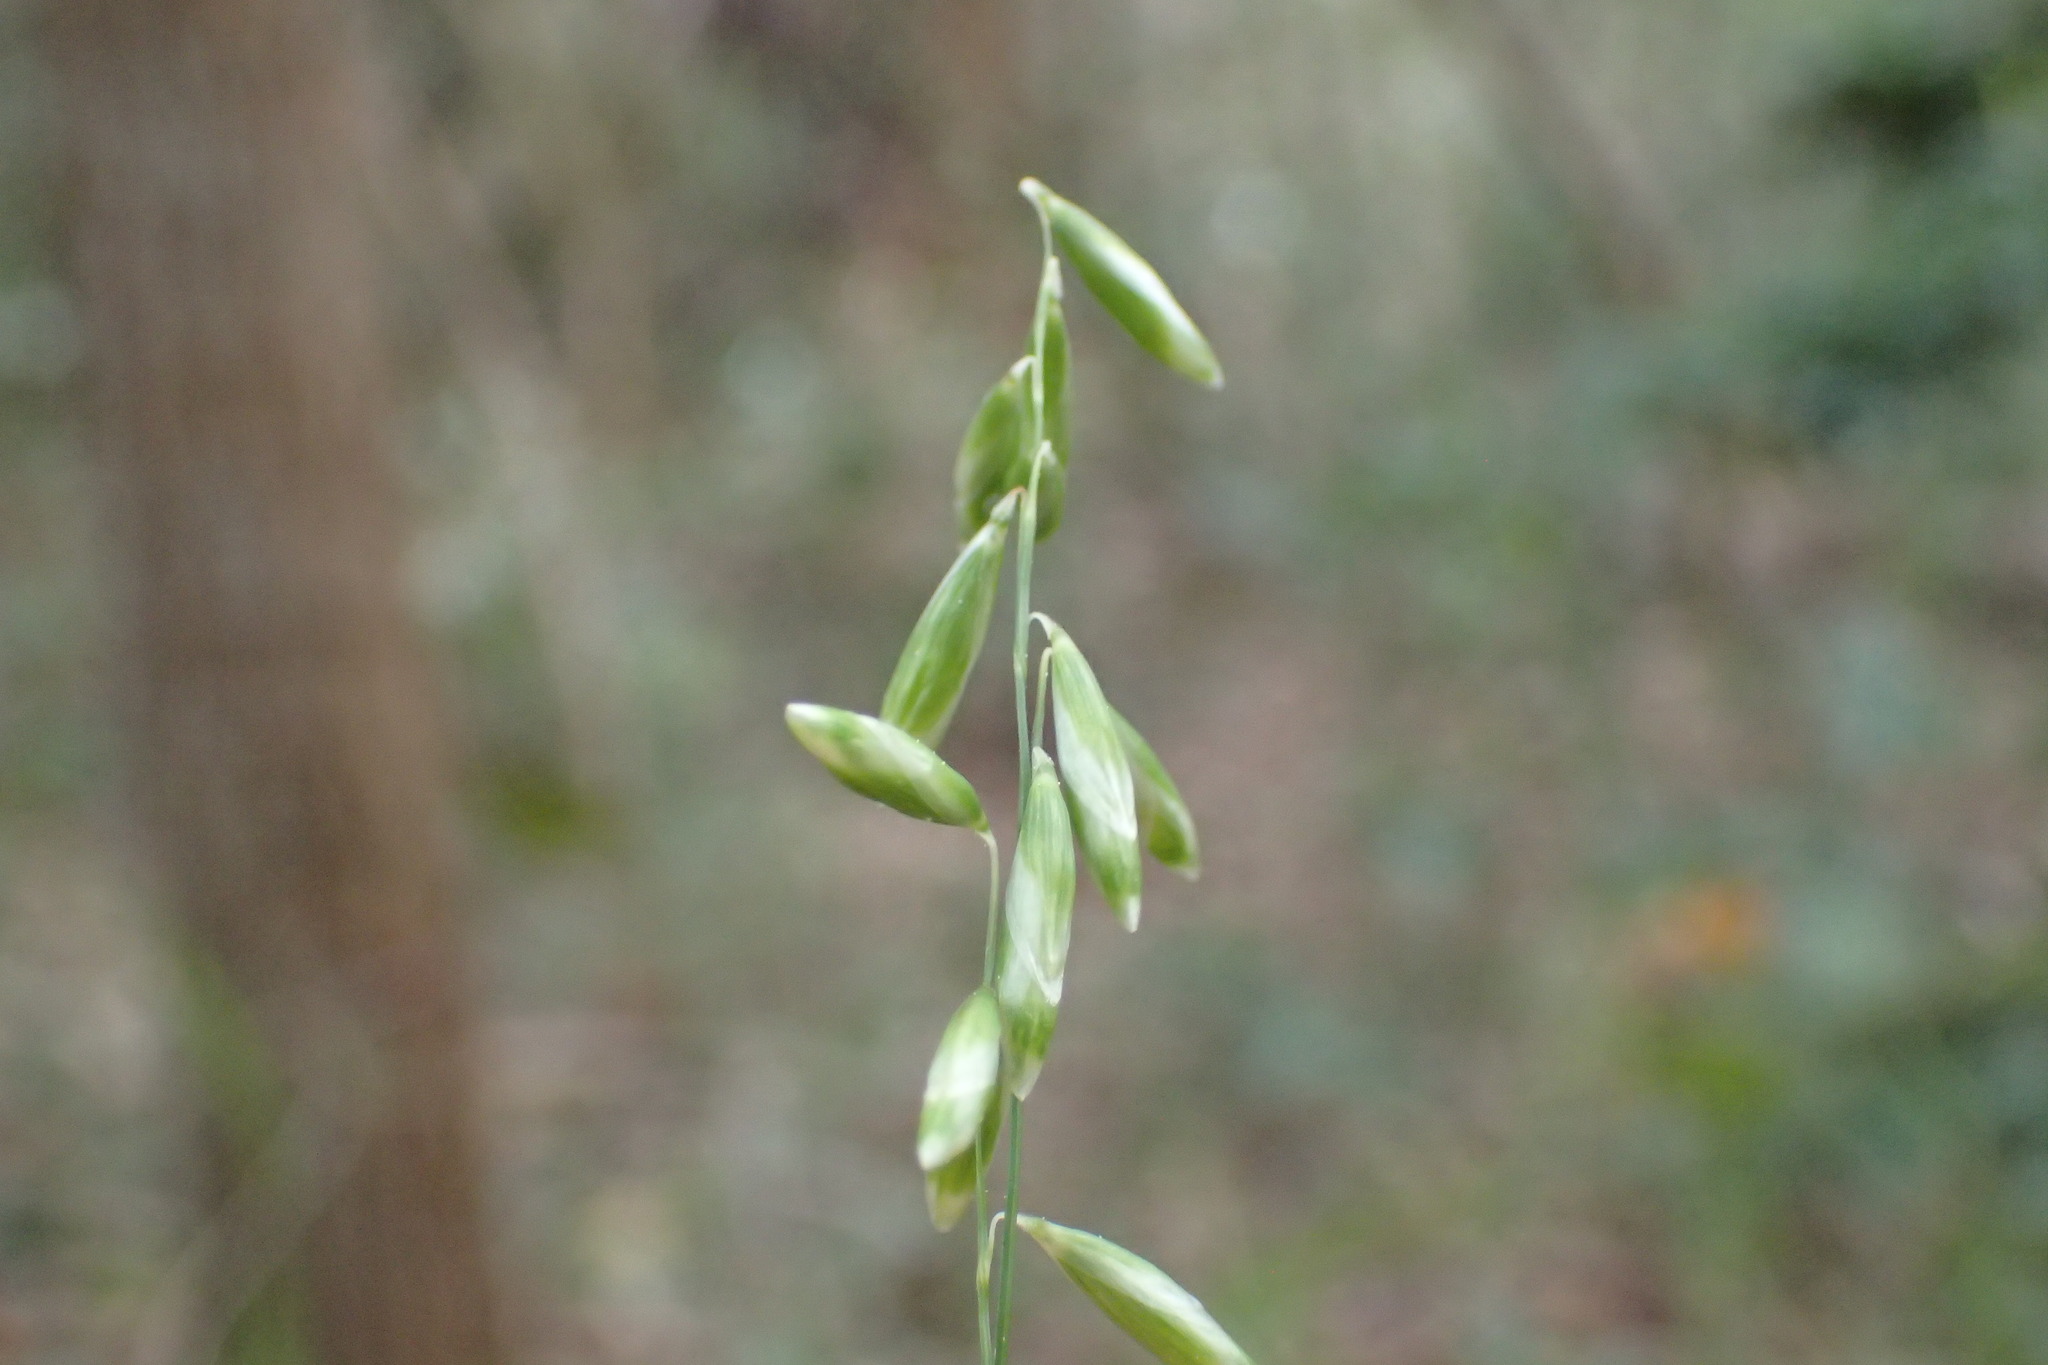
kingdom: Plantae
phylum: Tracheophyta
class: Liliopsida
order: Poales
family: Poaceae
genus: Melica
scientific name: Melica mutica
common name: Two-flower melic
